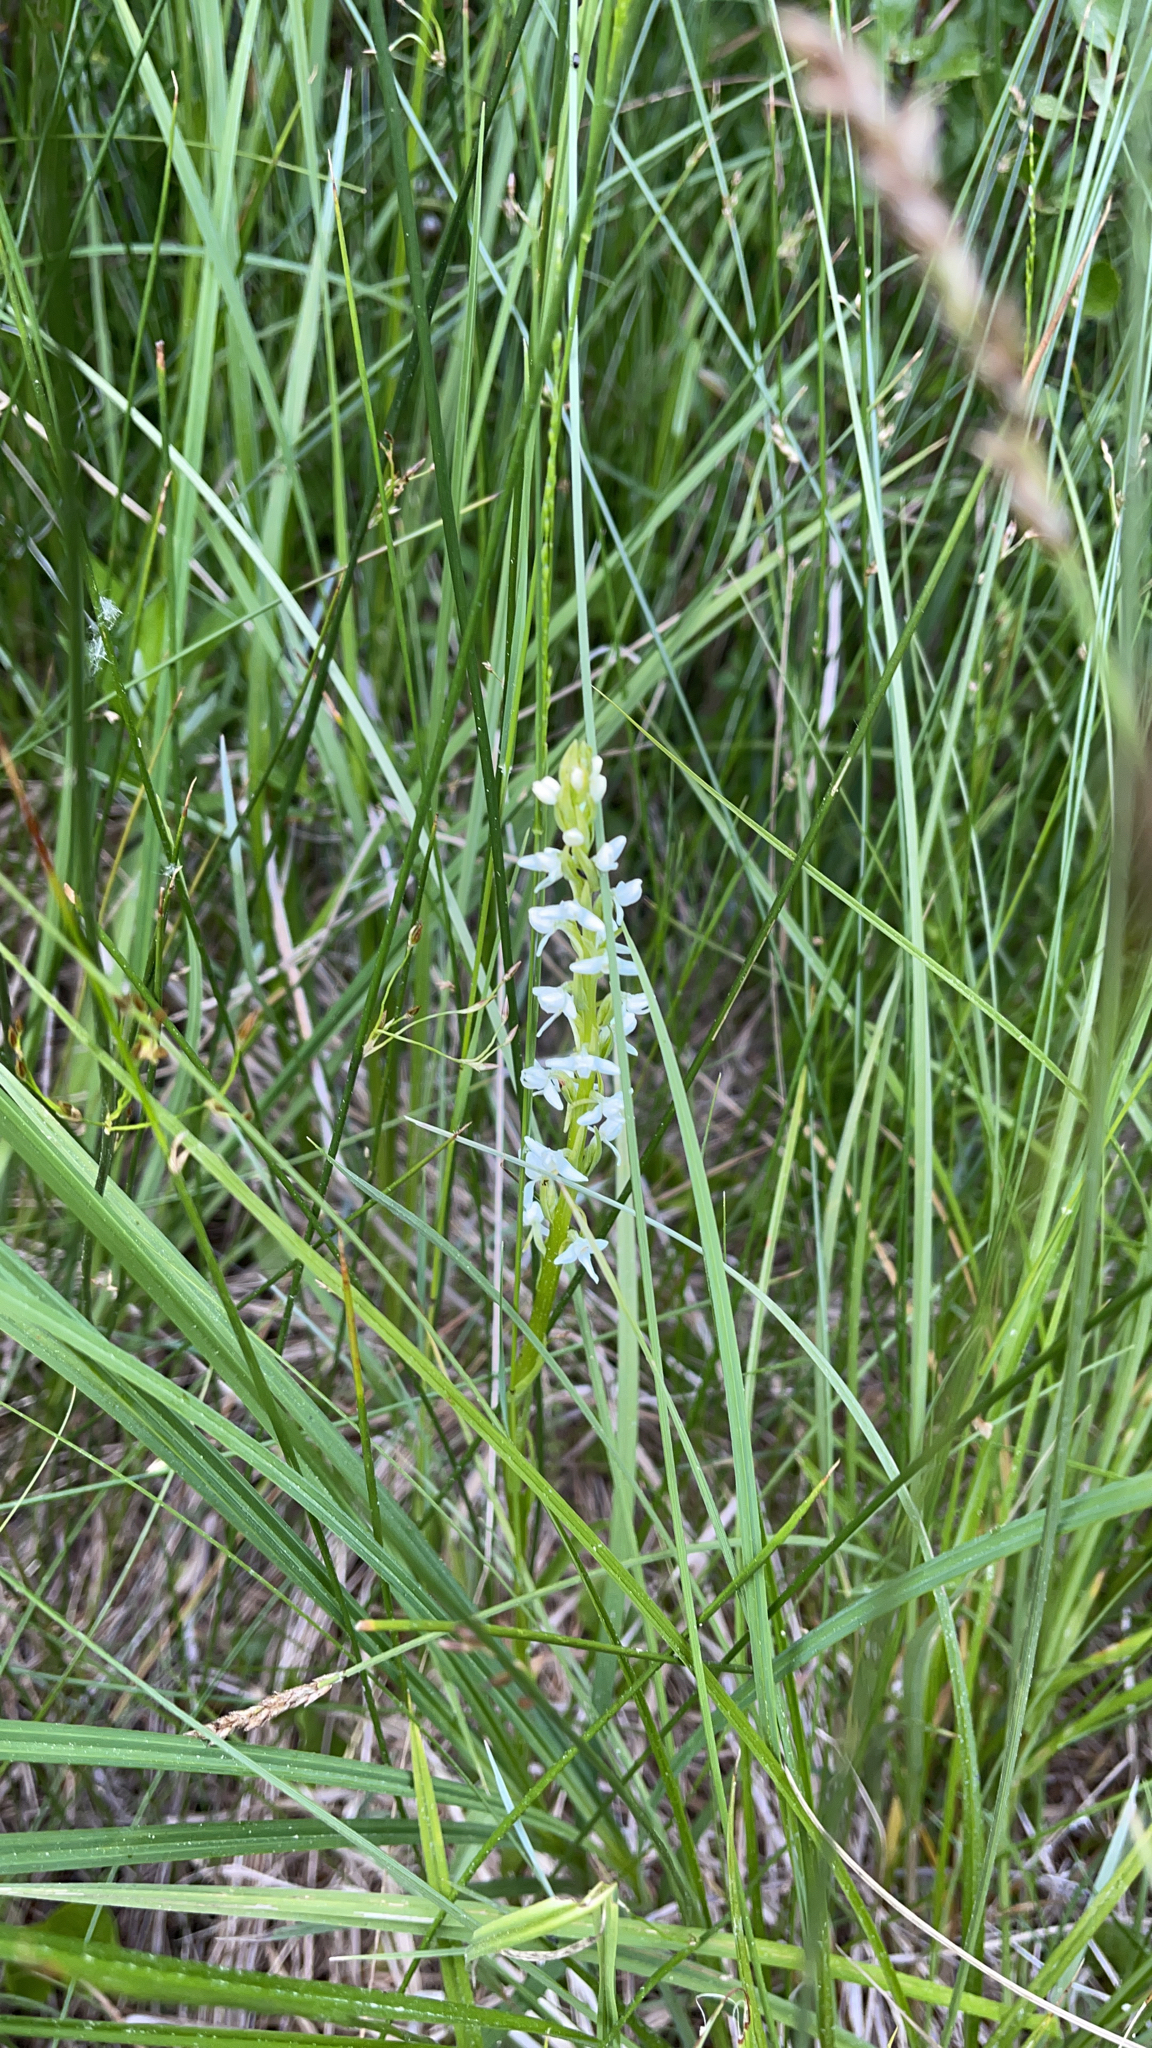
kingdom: Plantae
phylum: Tracheophyta
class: Liliopsida
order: Asparagales
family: Orchidaceae
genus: Platanthera
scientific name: Platanthera dilatata
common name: Bog candles
